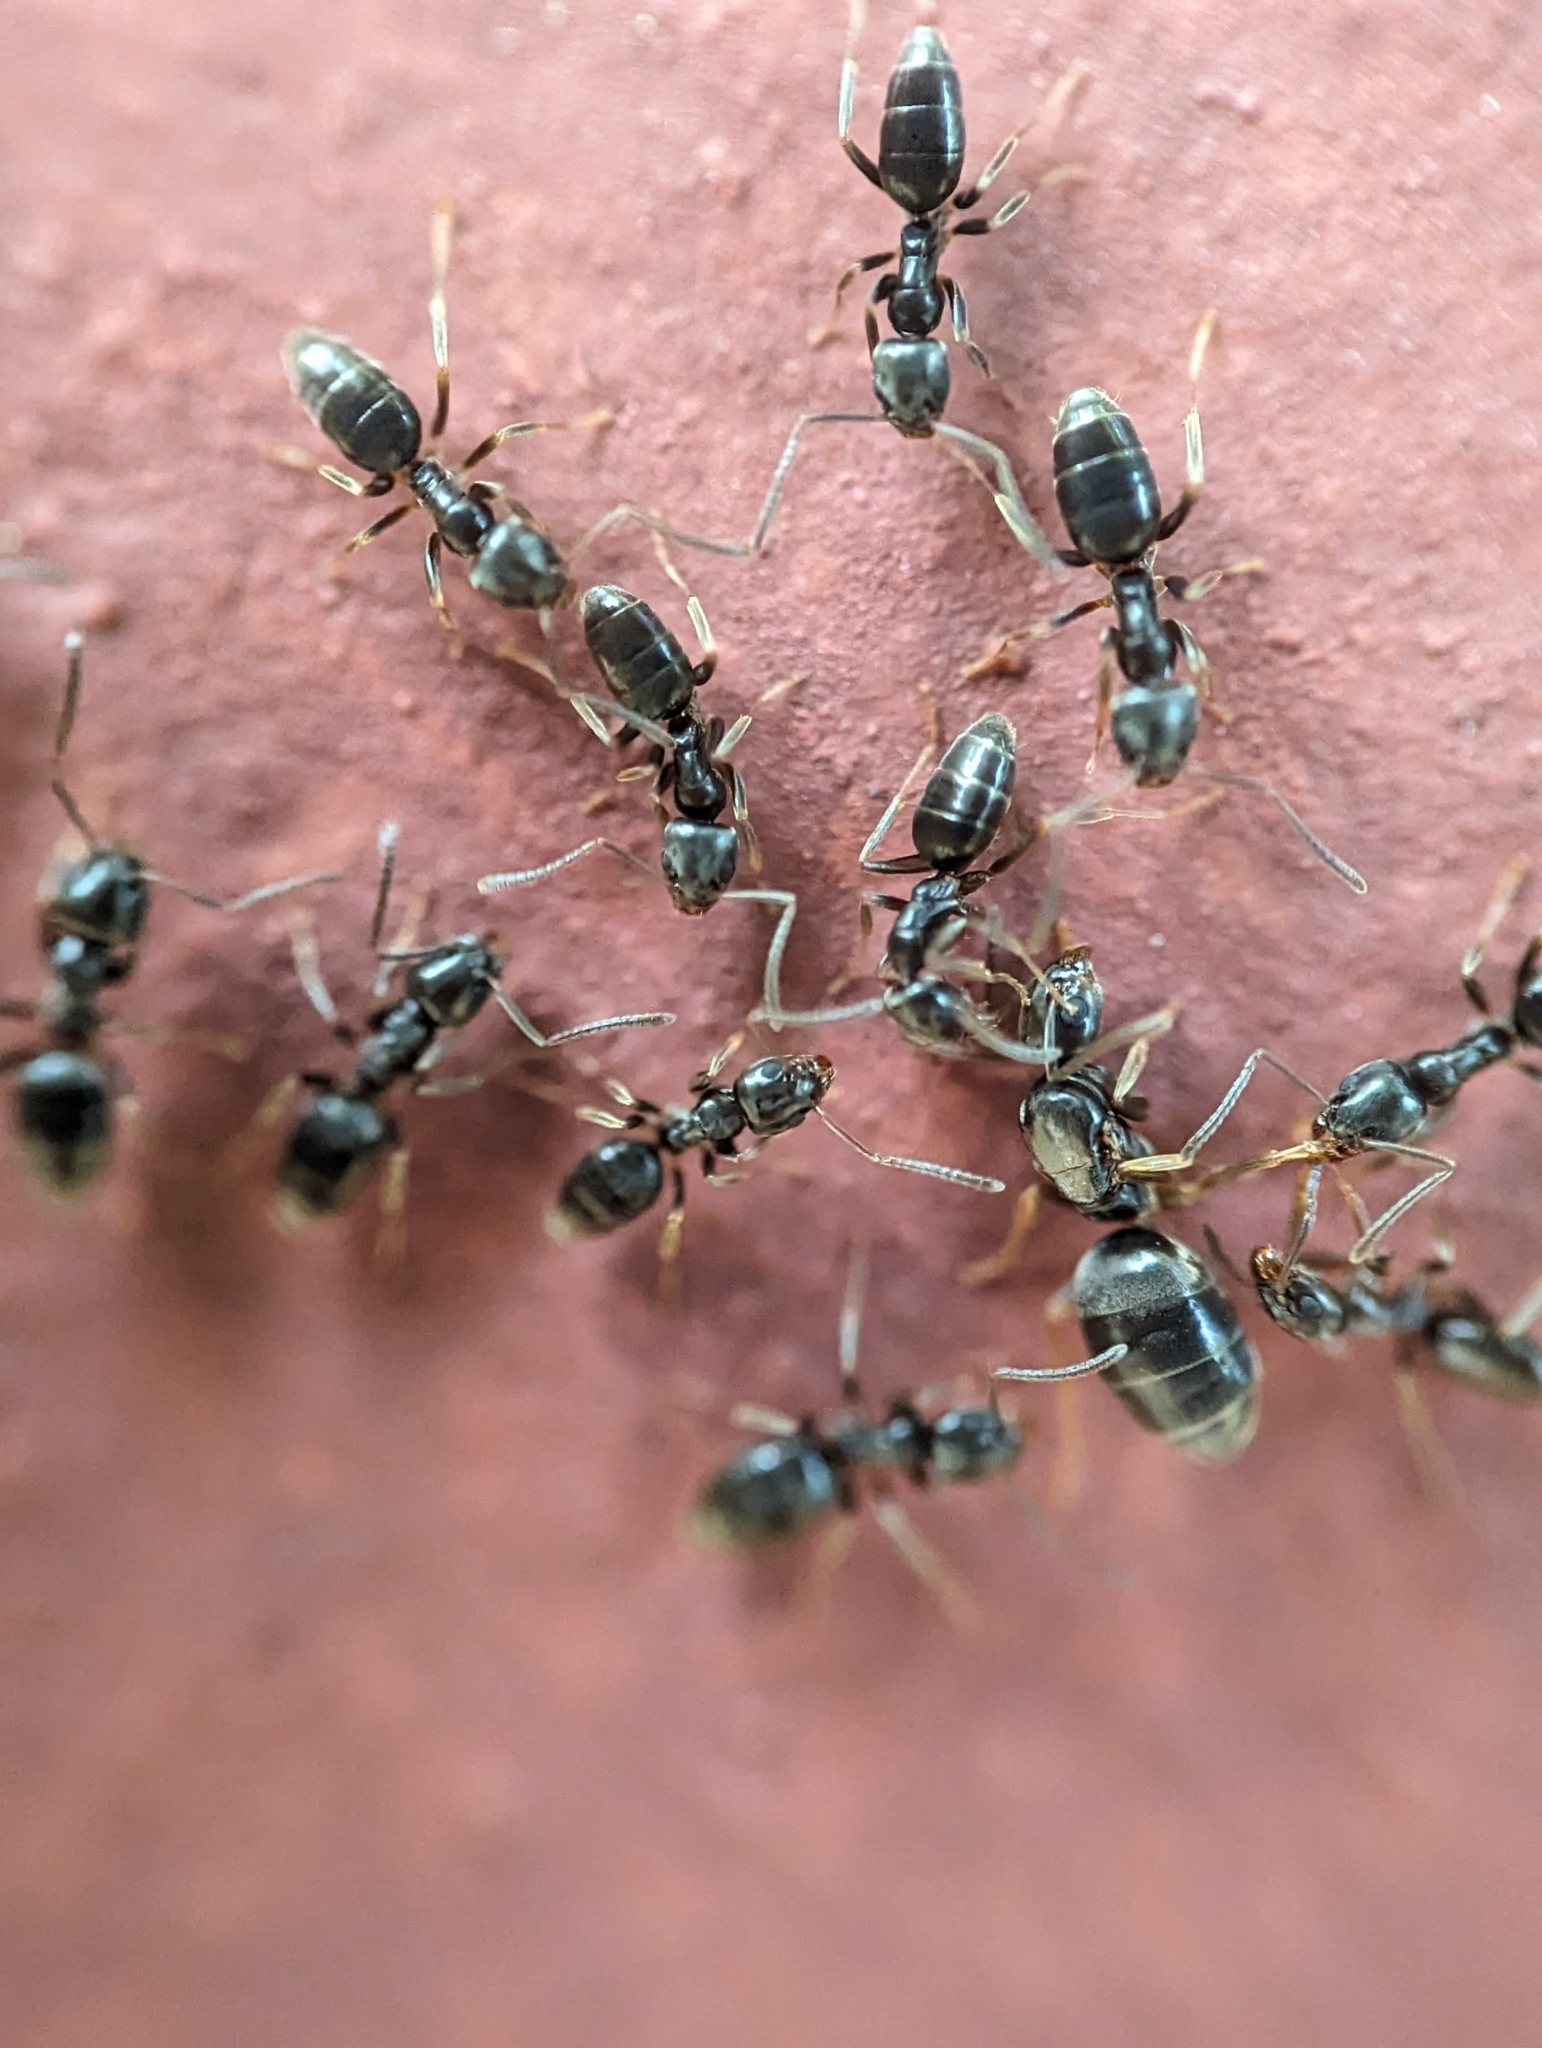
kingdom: Animalia
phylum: Arthropoda
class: Insecta
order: Hymenoptera
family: Formicidae
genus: Tapinoma
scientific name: Tapinoma sessile
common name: Odorous house ant
